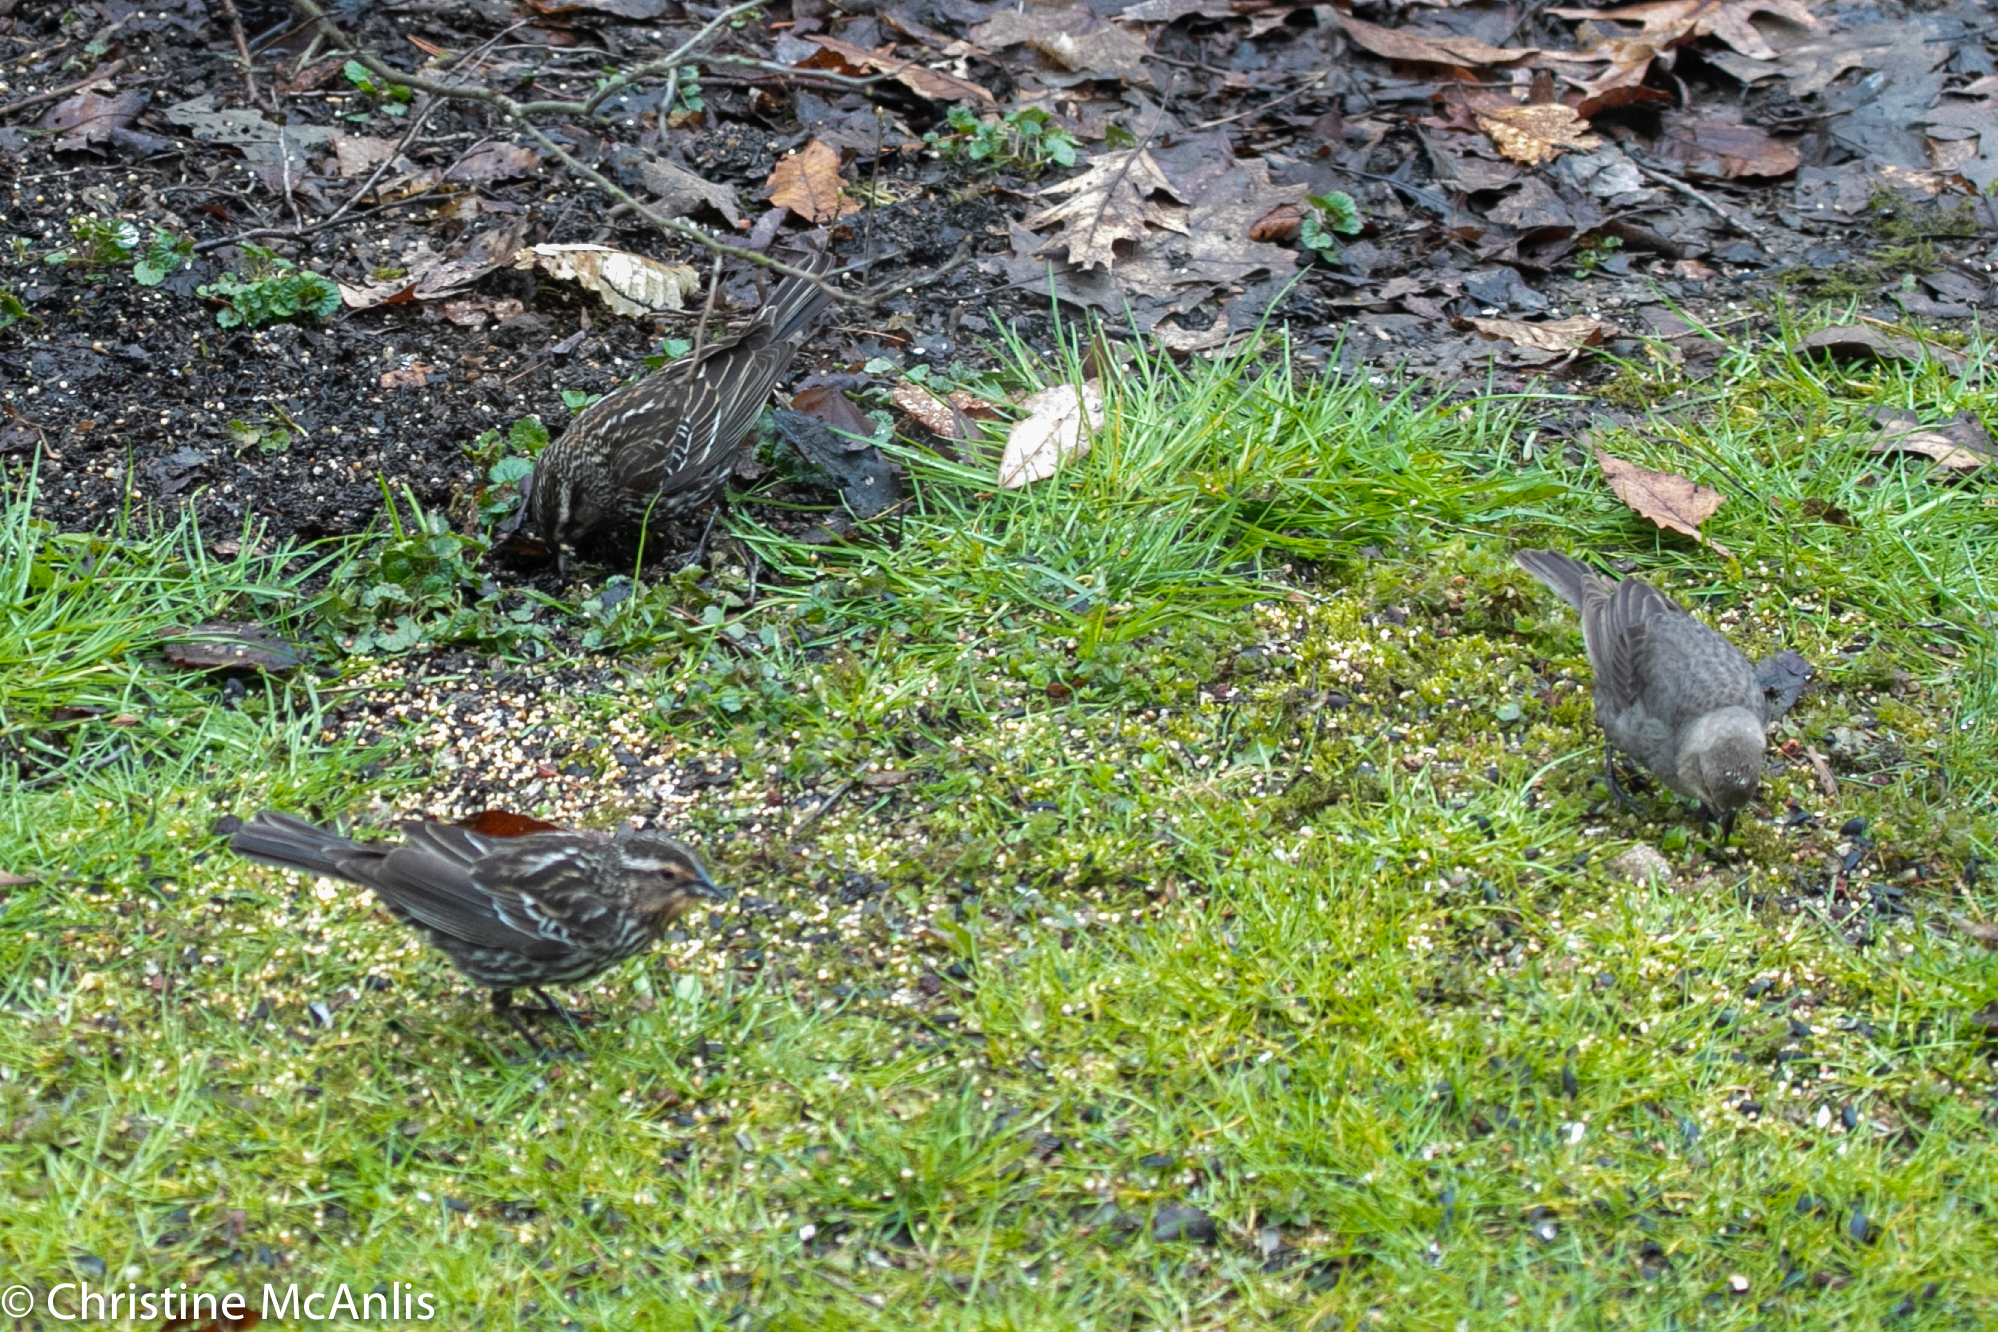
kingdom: Animalia
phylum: Chordata
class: Aves
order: Passeriformes
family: Icteridae
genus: Agelaius
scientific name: Agelaius phoeniceus
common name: Red-winged blackbird
